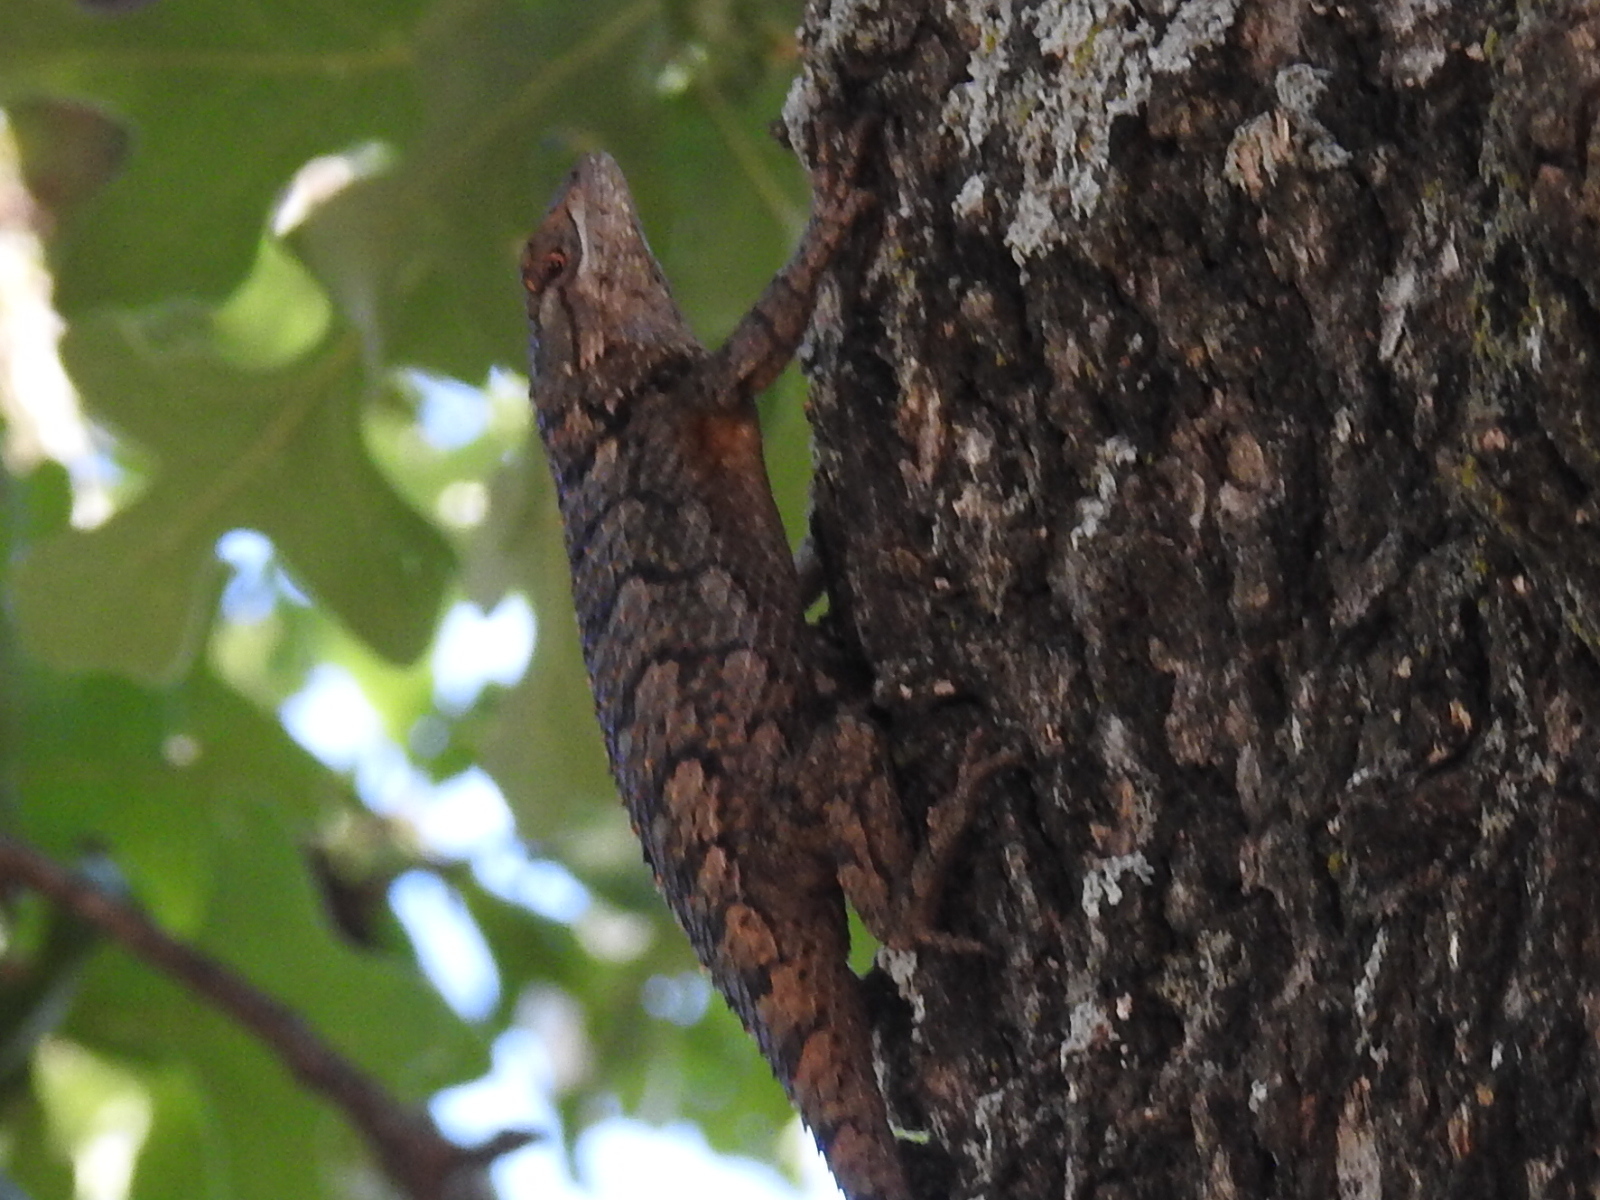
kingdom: Animalia
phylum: Chordata
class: Squamata
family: Phrynosomatidae
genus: Sceloporus
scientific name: Sceloporus olivaceus
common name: Texas spiny lizard
